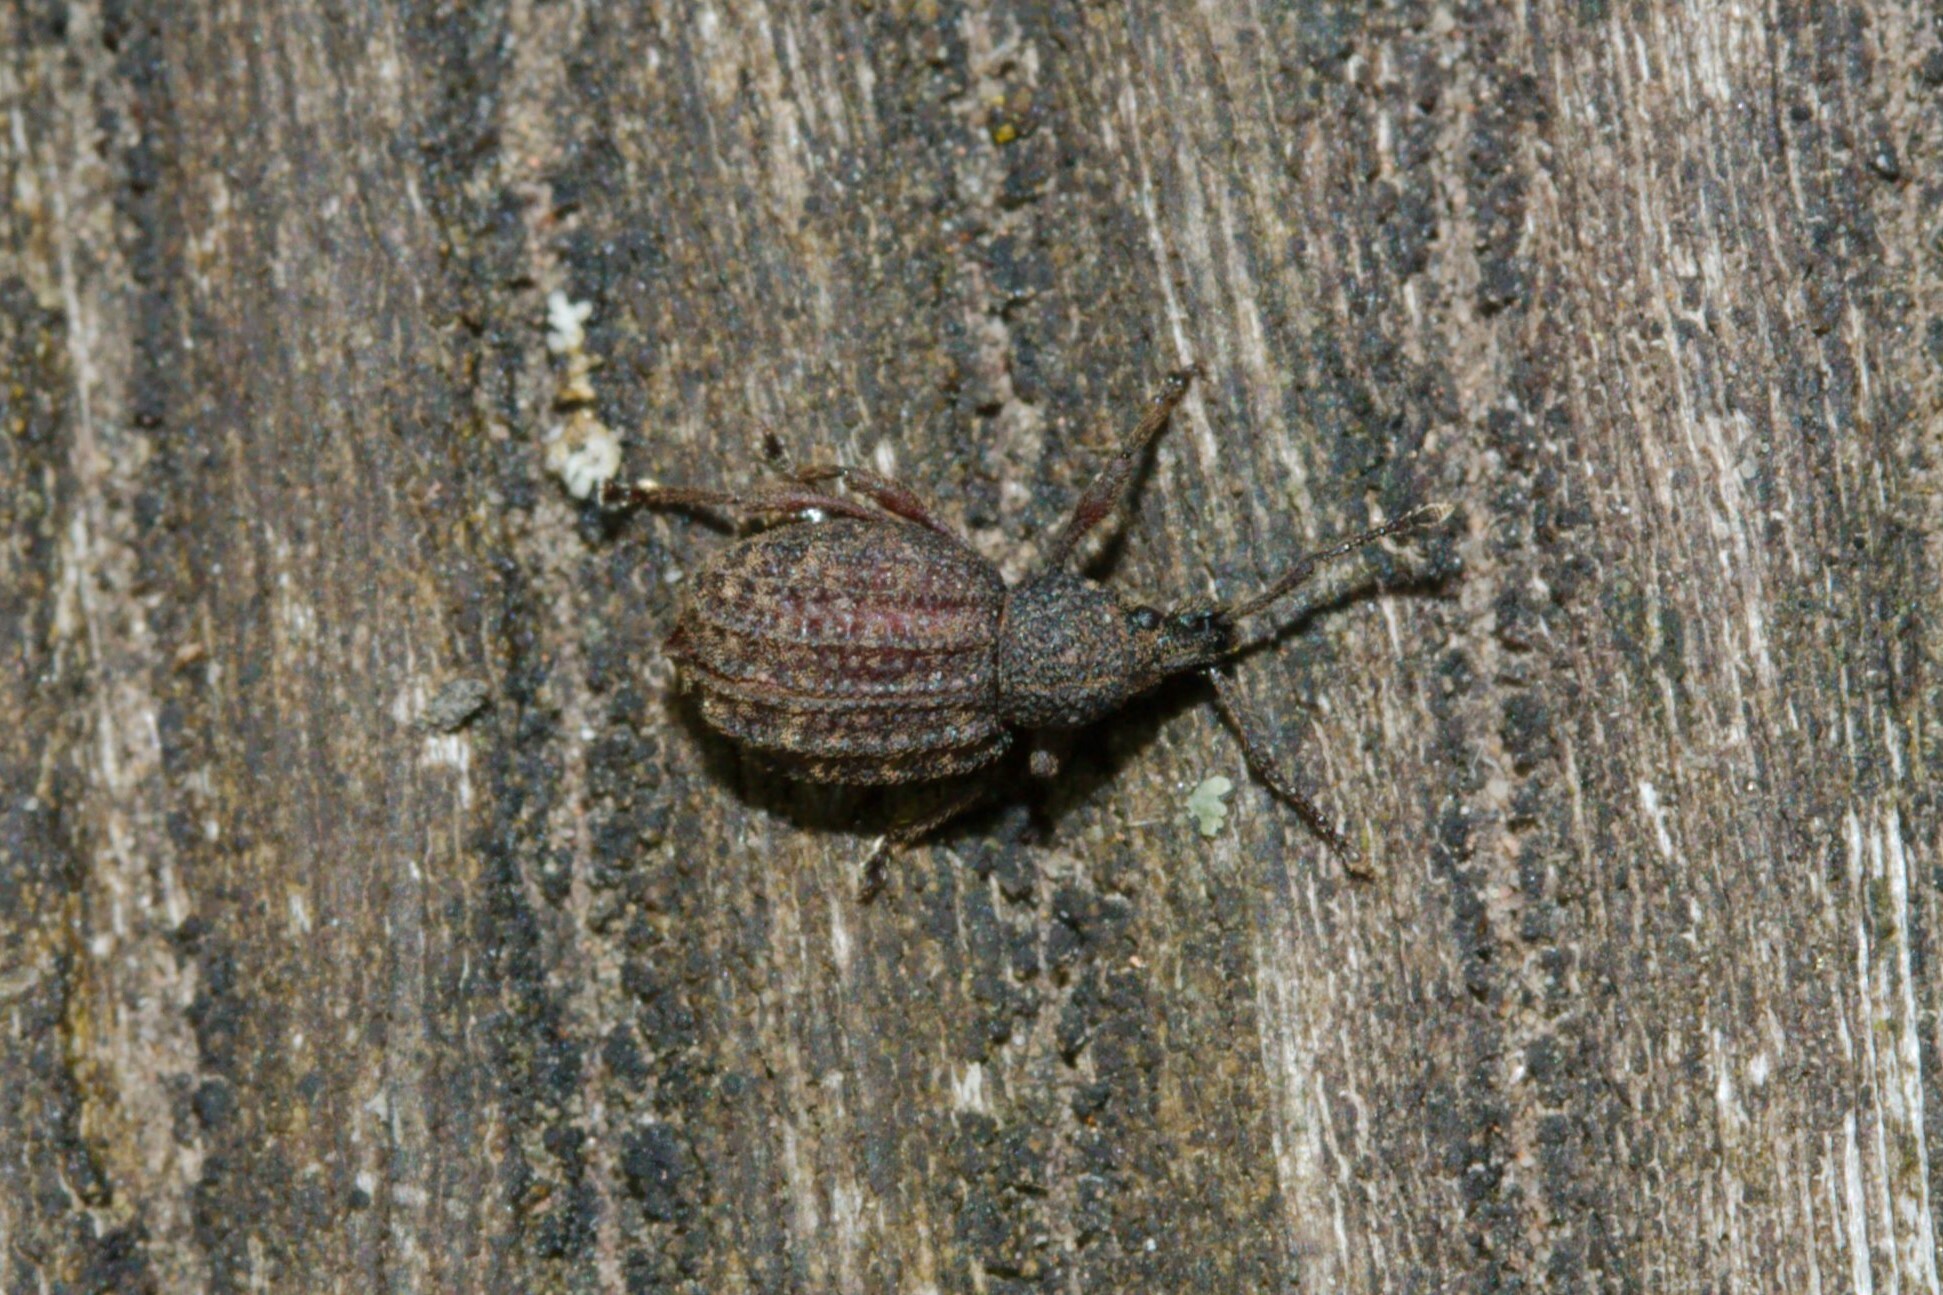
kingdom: Animalia
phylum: Arthropoda
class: Insecta
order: Coleoptera
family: Curculionidae
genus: Otiorhynchus
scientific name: Otiorhynchus porcatus
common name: Weevil
